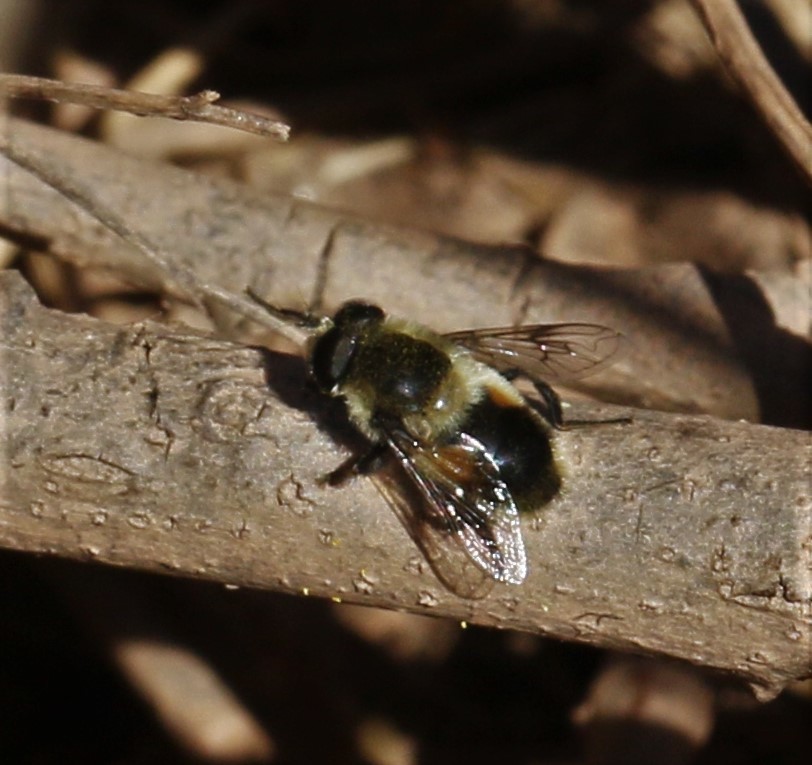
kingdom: Animalia
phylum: Arthropoda
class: Insecta
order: Diptera
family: Syrphidae
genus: Eristalis
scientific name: Eristalis anthophorina
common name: Orange-spotted drone fly
